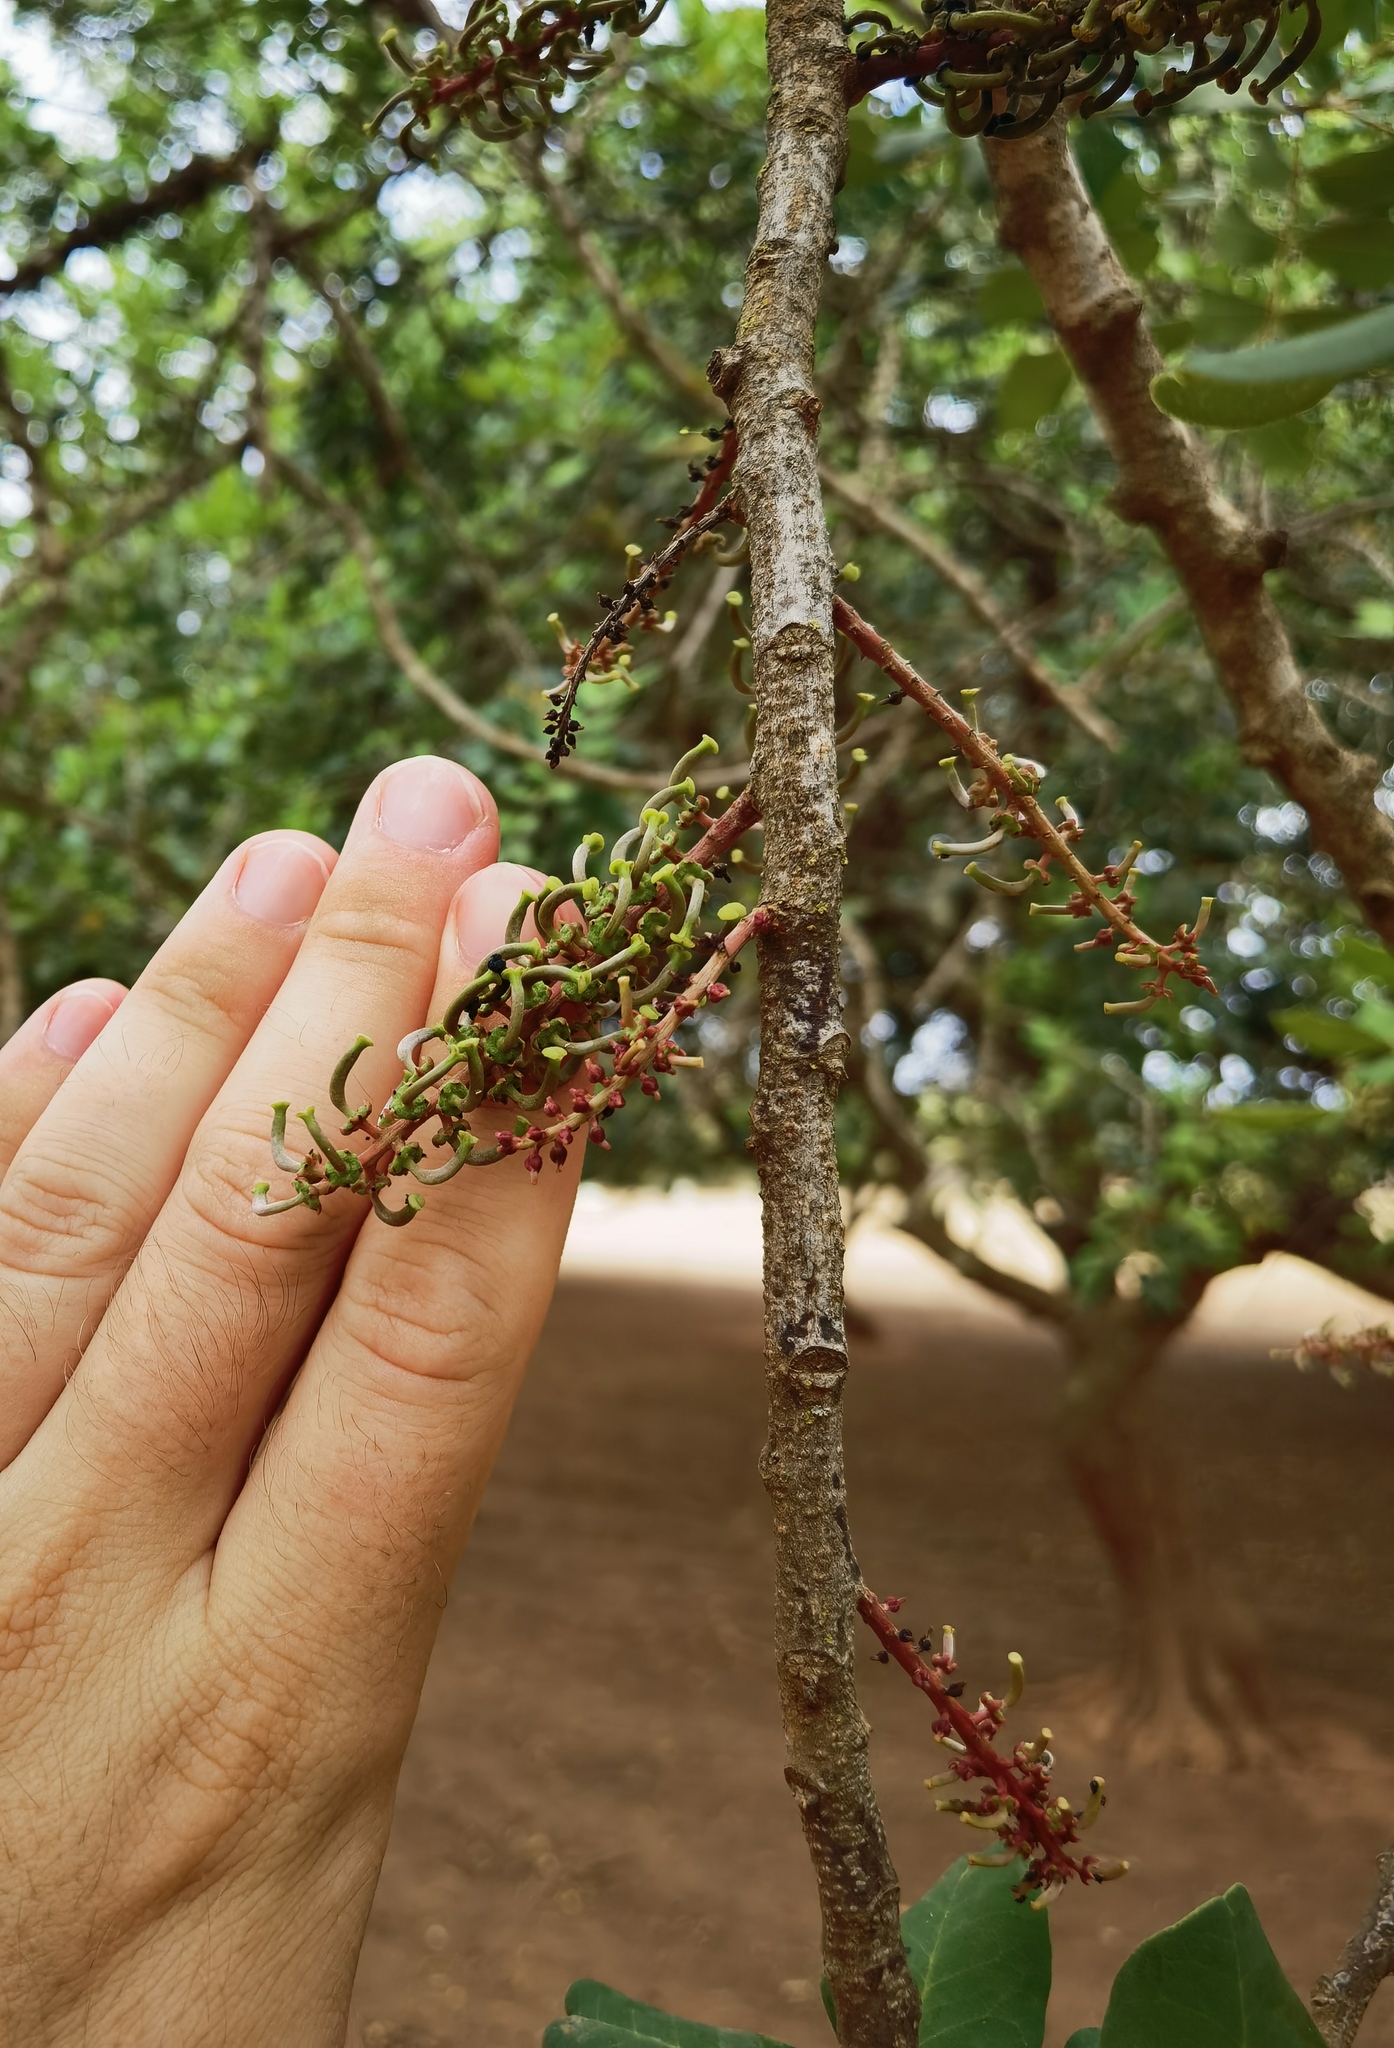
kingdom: Plantae
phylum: Tracheophyta
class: Magnoliopsida
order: Fabales
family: Fabaceae
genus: Ceratonia
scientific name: Ceratonia siliqua
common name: Carob
